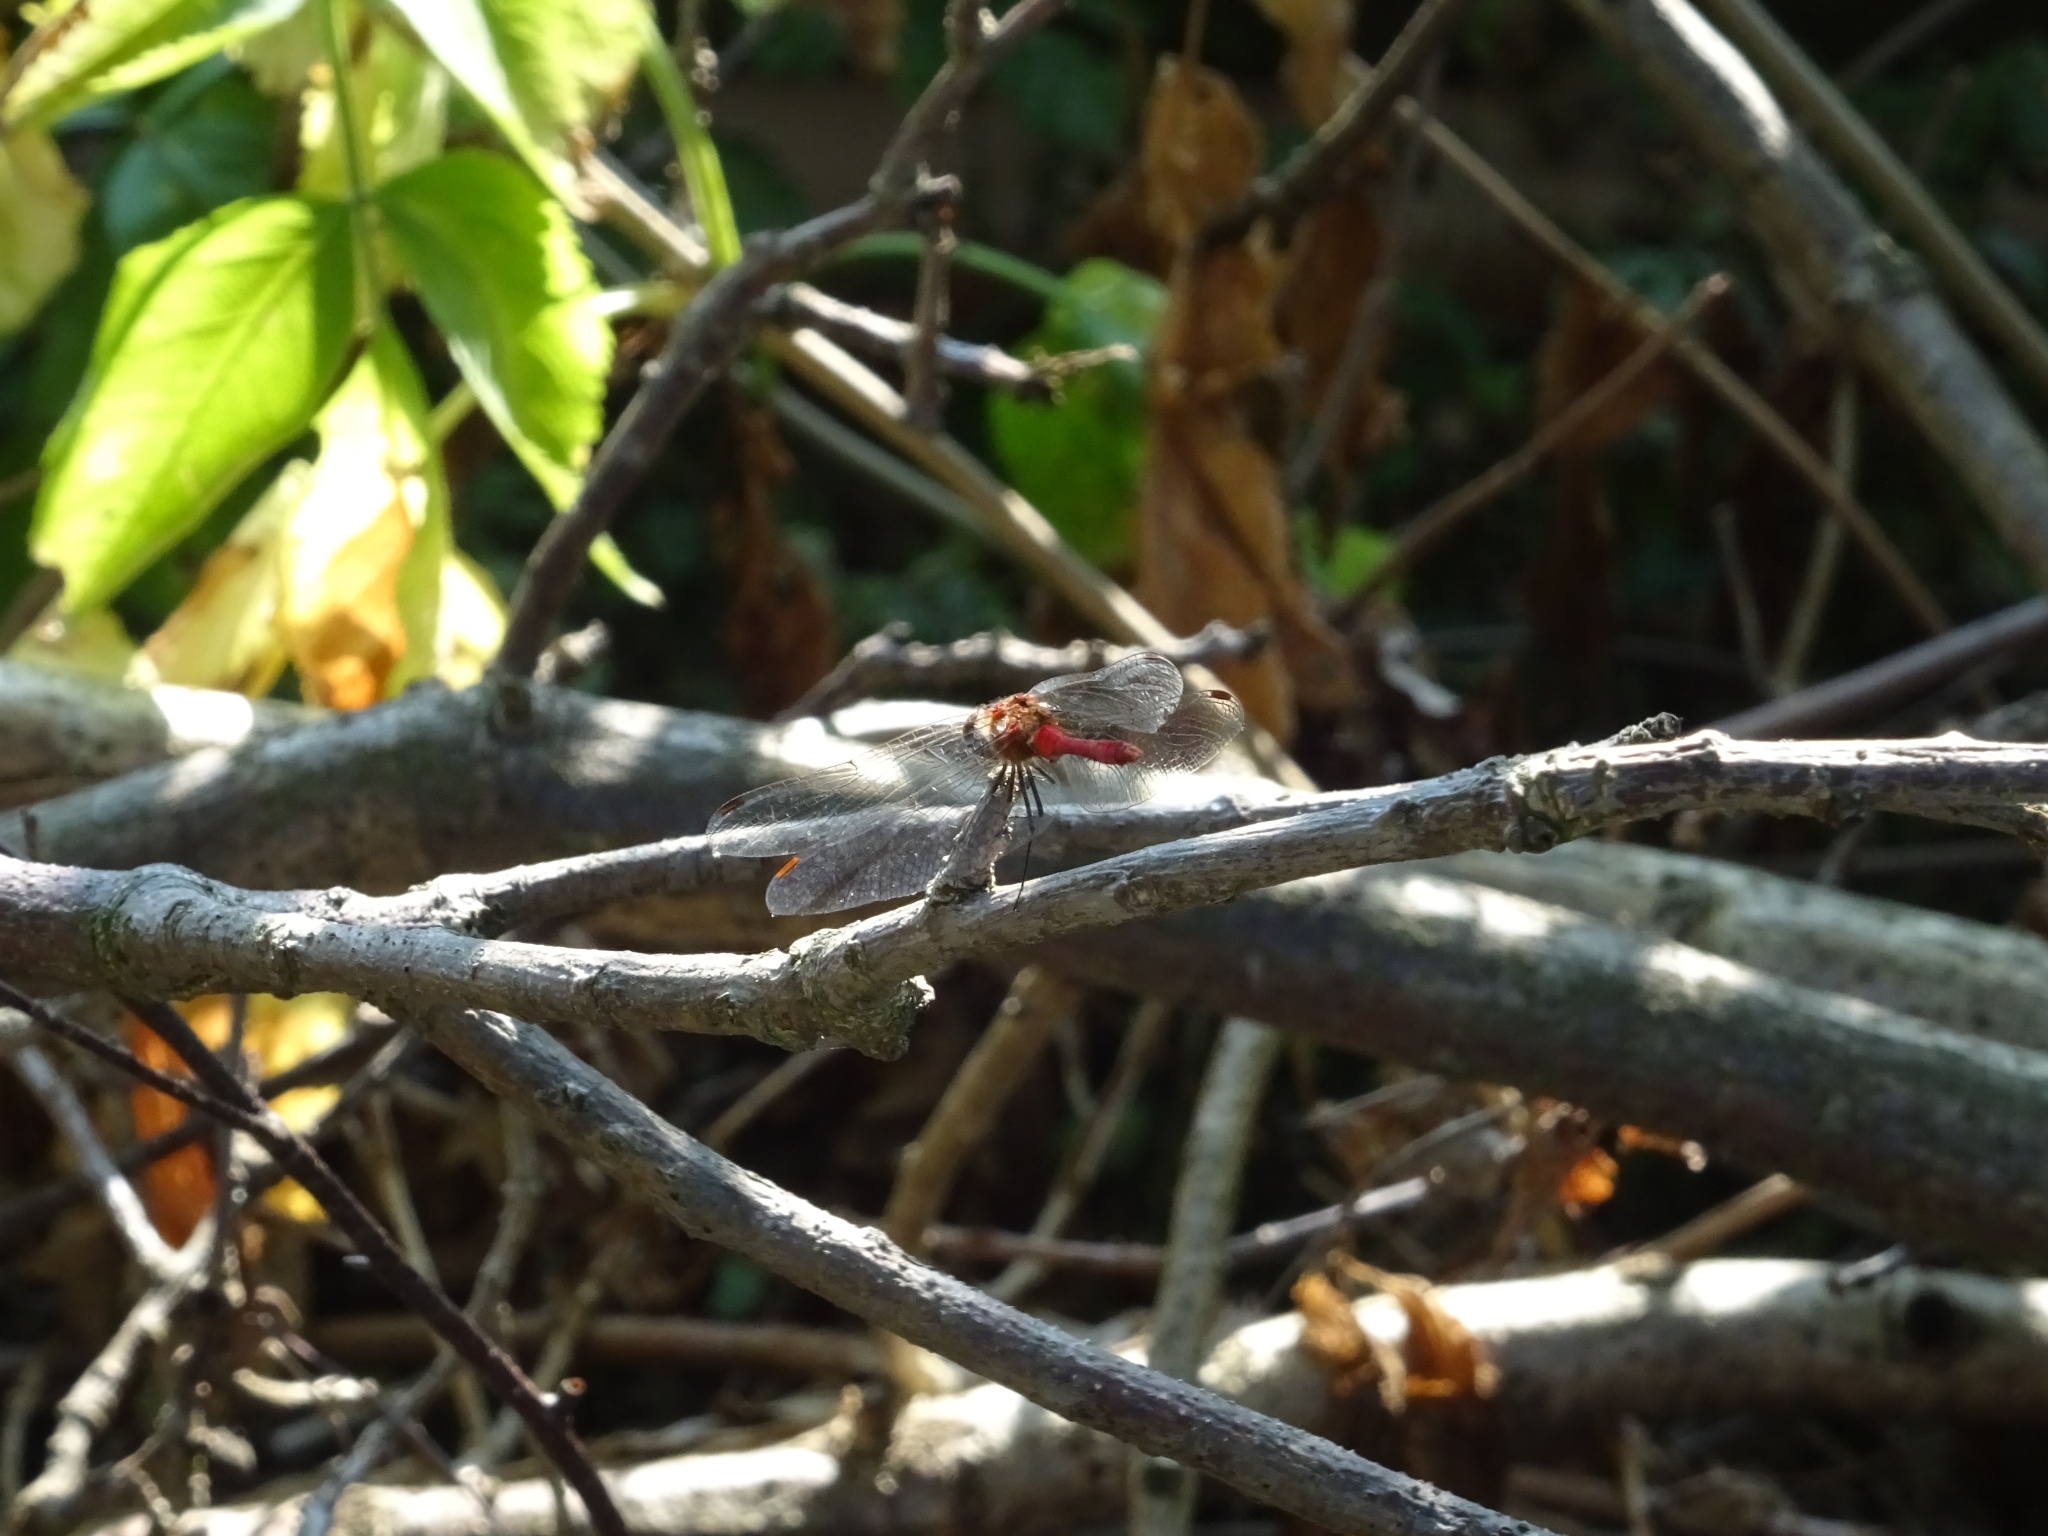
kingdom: Animalia
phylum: Arthropoda
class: Insecta
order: Odonata
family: Libellulidae
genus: Sympetrum
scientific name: Sympetrum sanguineum
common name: Ruddy darter
